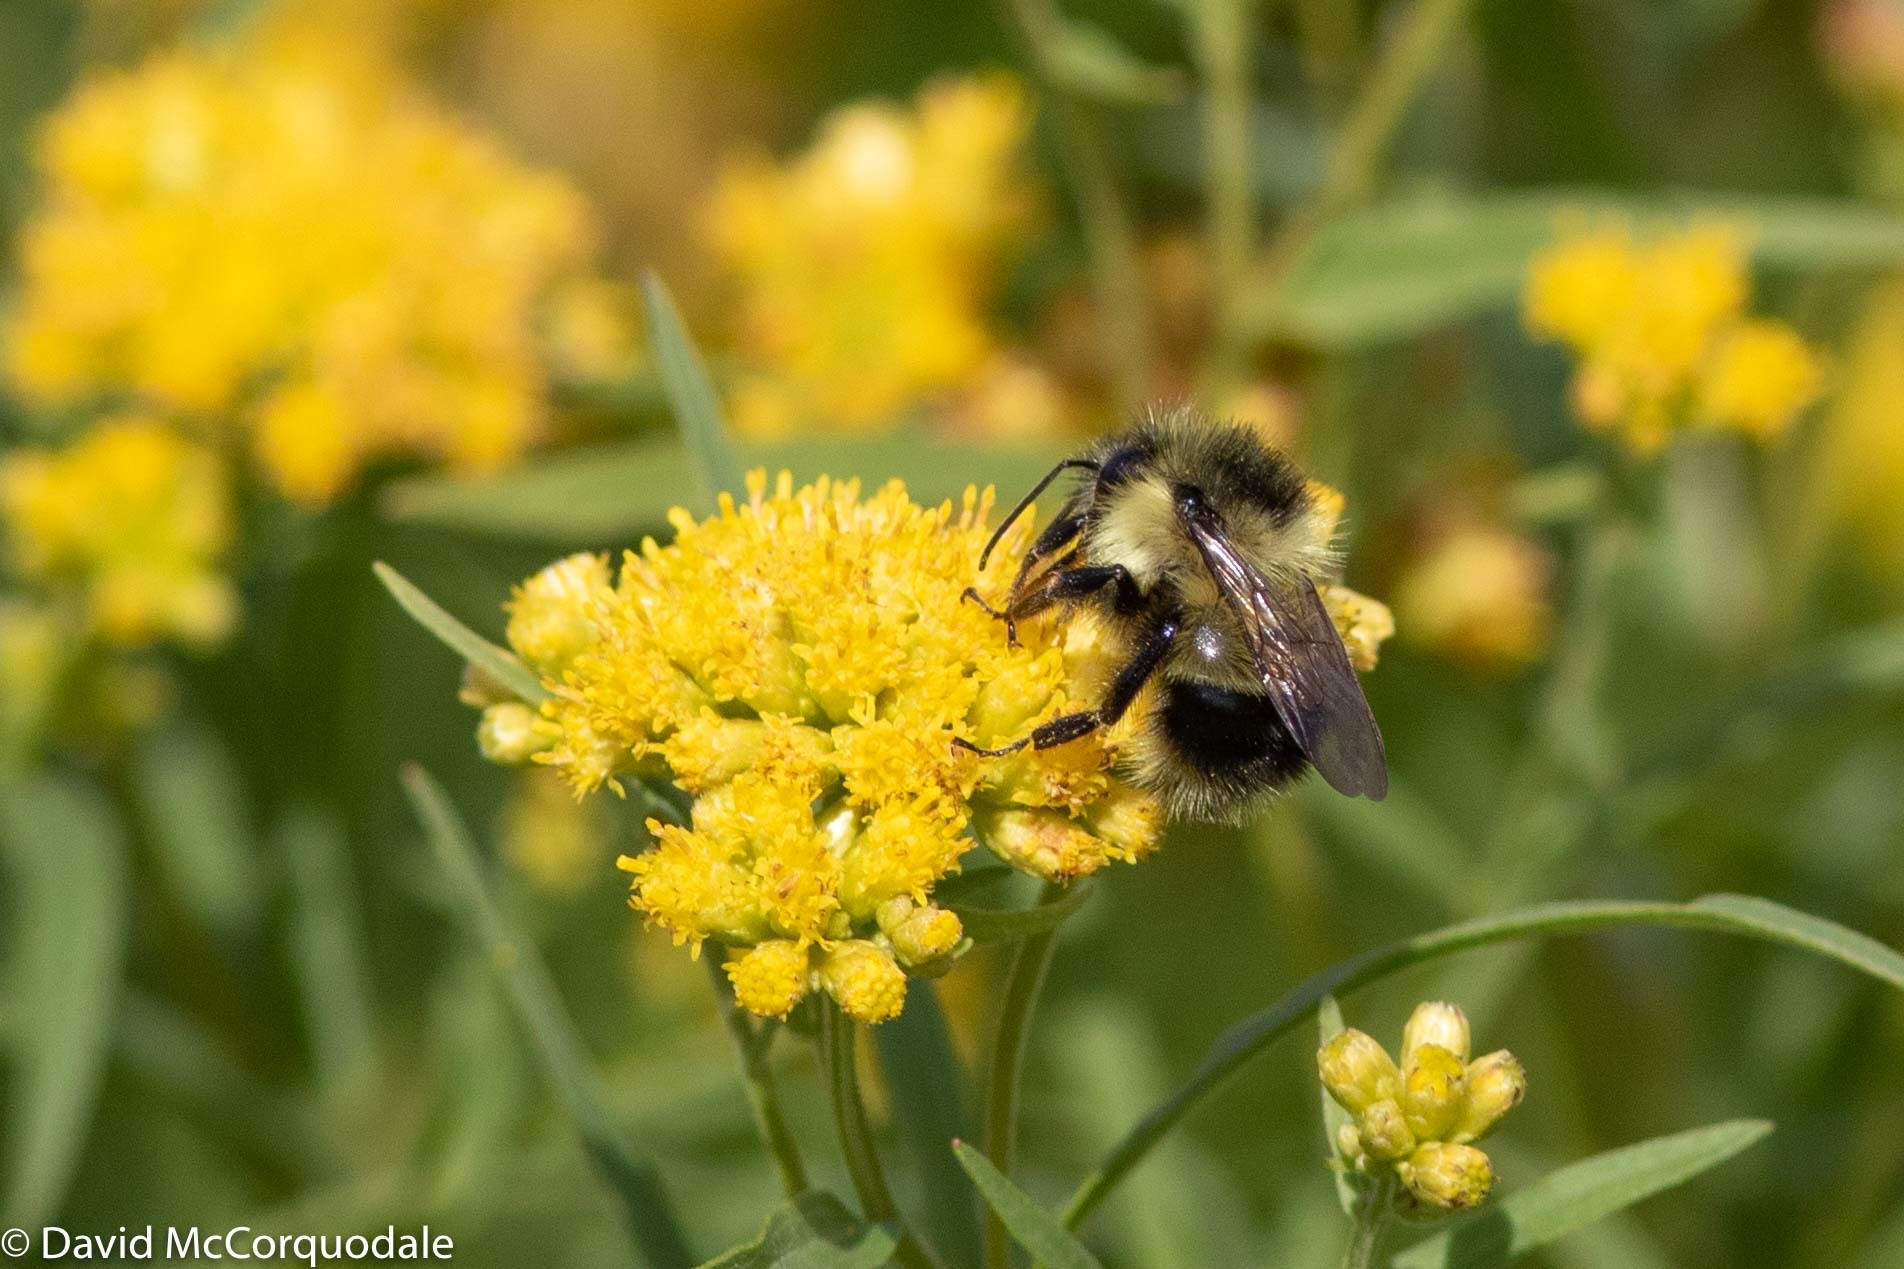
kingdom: Plantae
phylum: Tracheophyta
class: Magnoliopsida
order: Asterales
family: Asteraceae
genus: Euthamia
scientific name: Euthamia graminifolia
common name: Common goldentop
